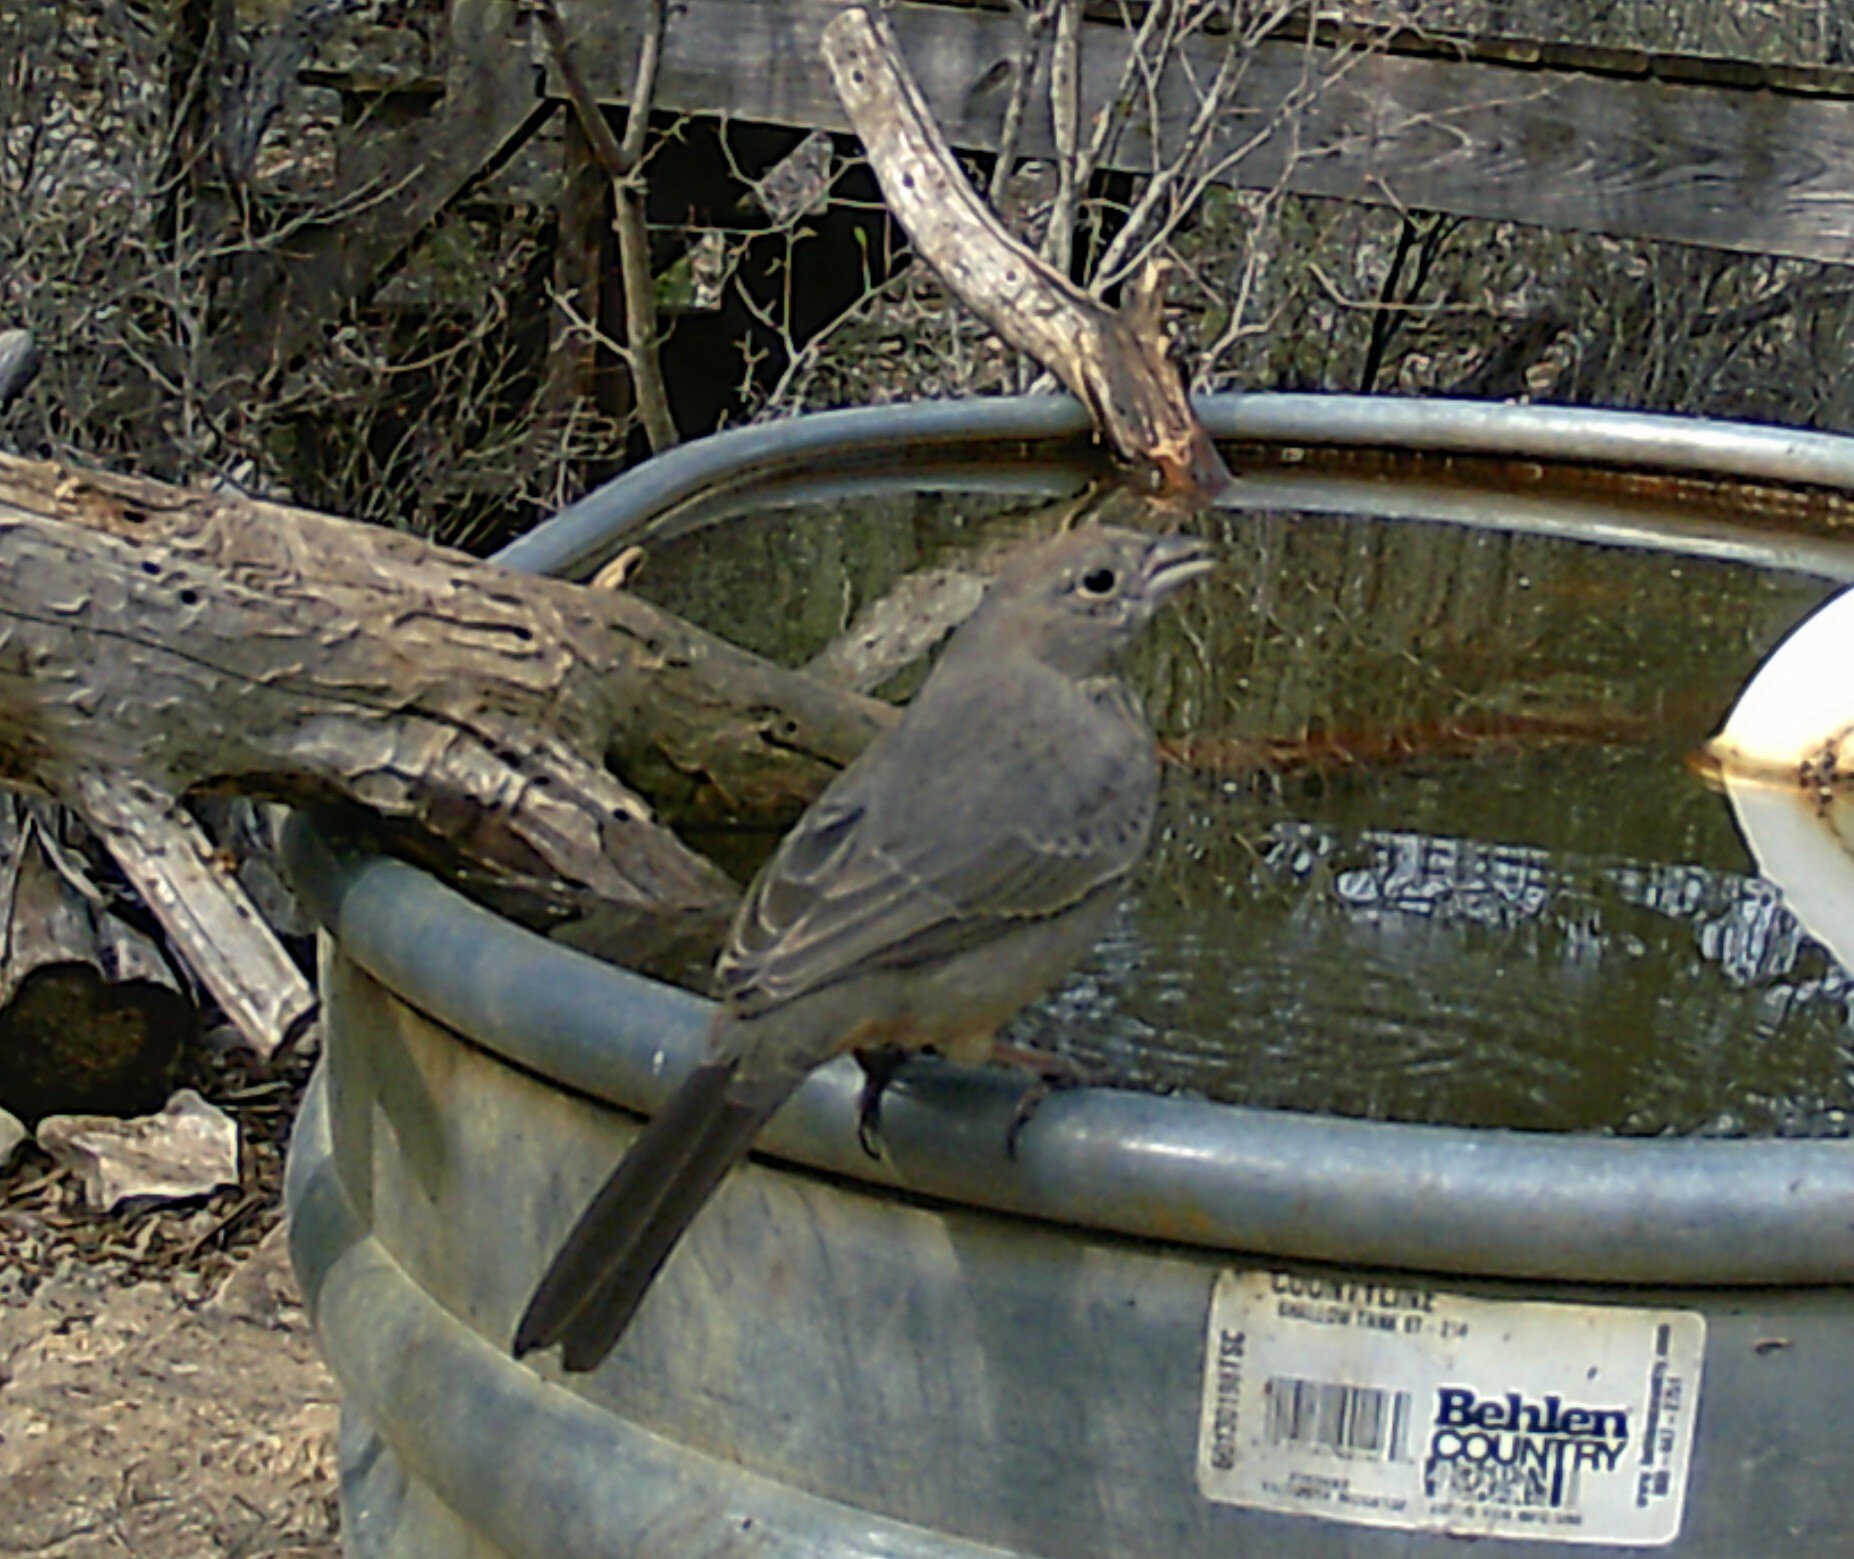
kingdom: Animalia
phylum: Chordata
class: Aves
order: Passeriformes
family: Passerellidae
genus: Melozone
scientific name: Melozone fusca
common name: Canyon towhee
